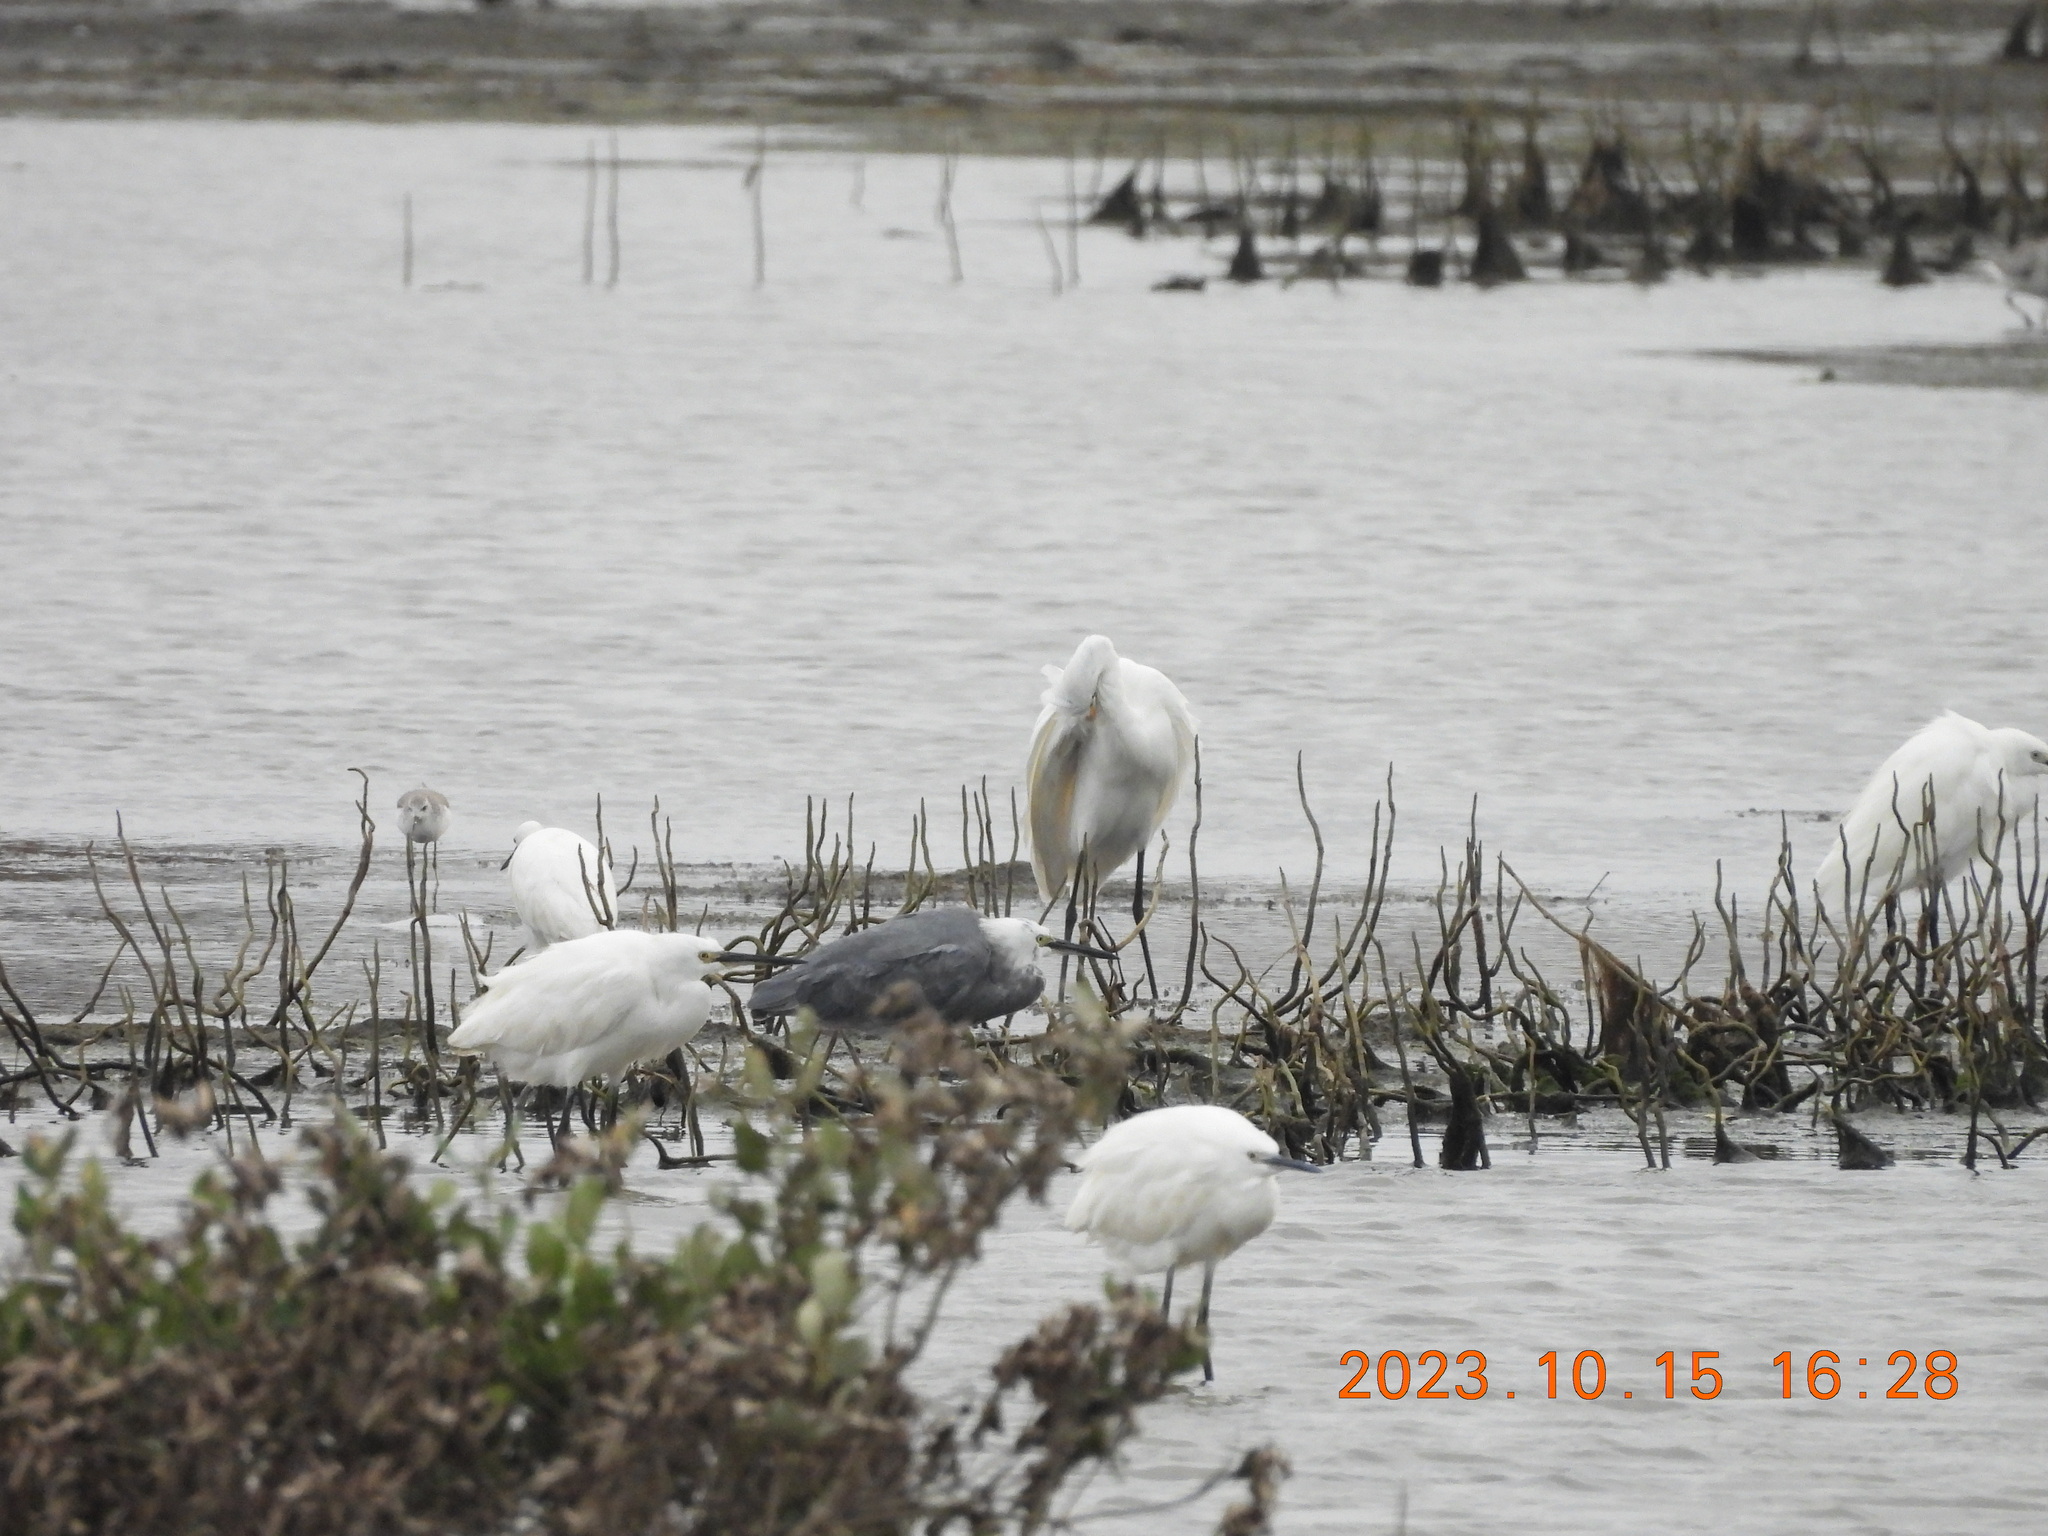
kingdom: Animalia
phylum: Chordata
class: Aves
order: Pelecaniformes
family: Ardeidae
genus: Egretta
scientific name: Egretta garzetta
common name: Little egret
